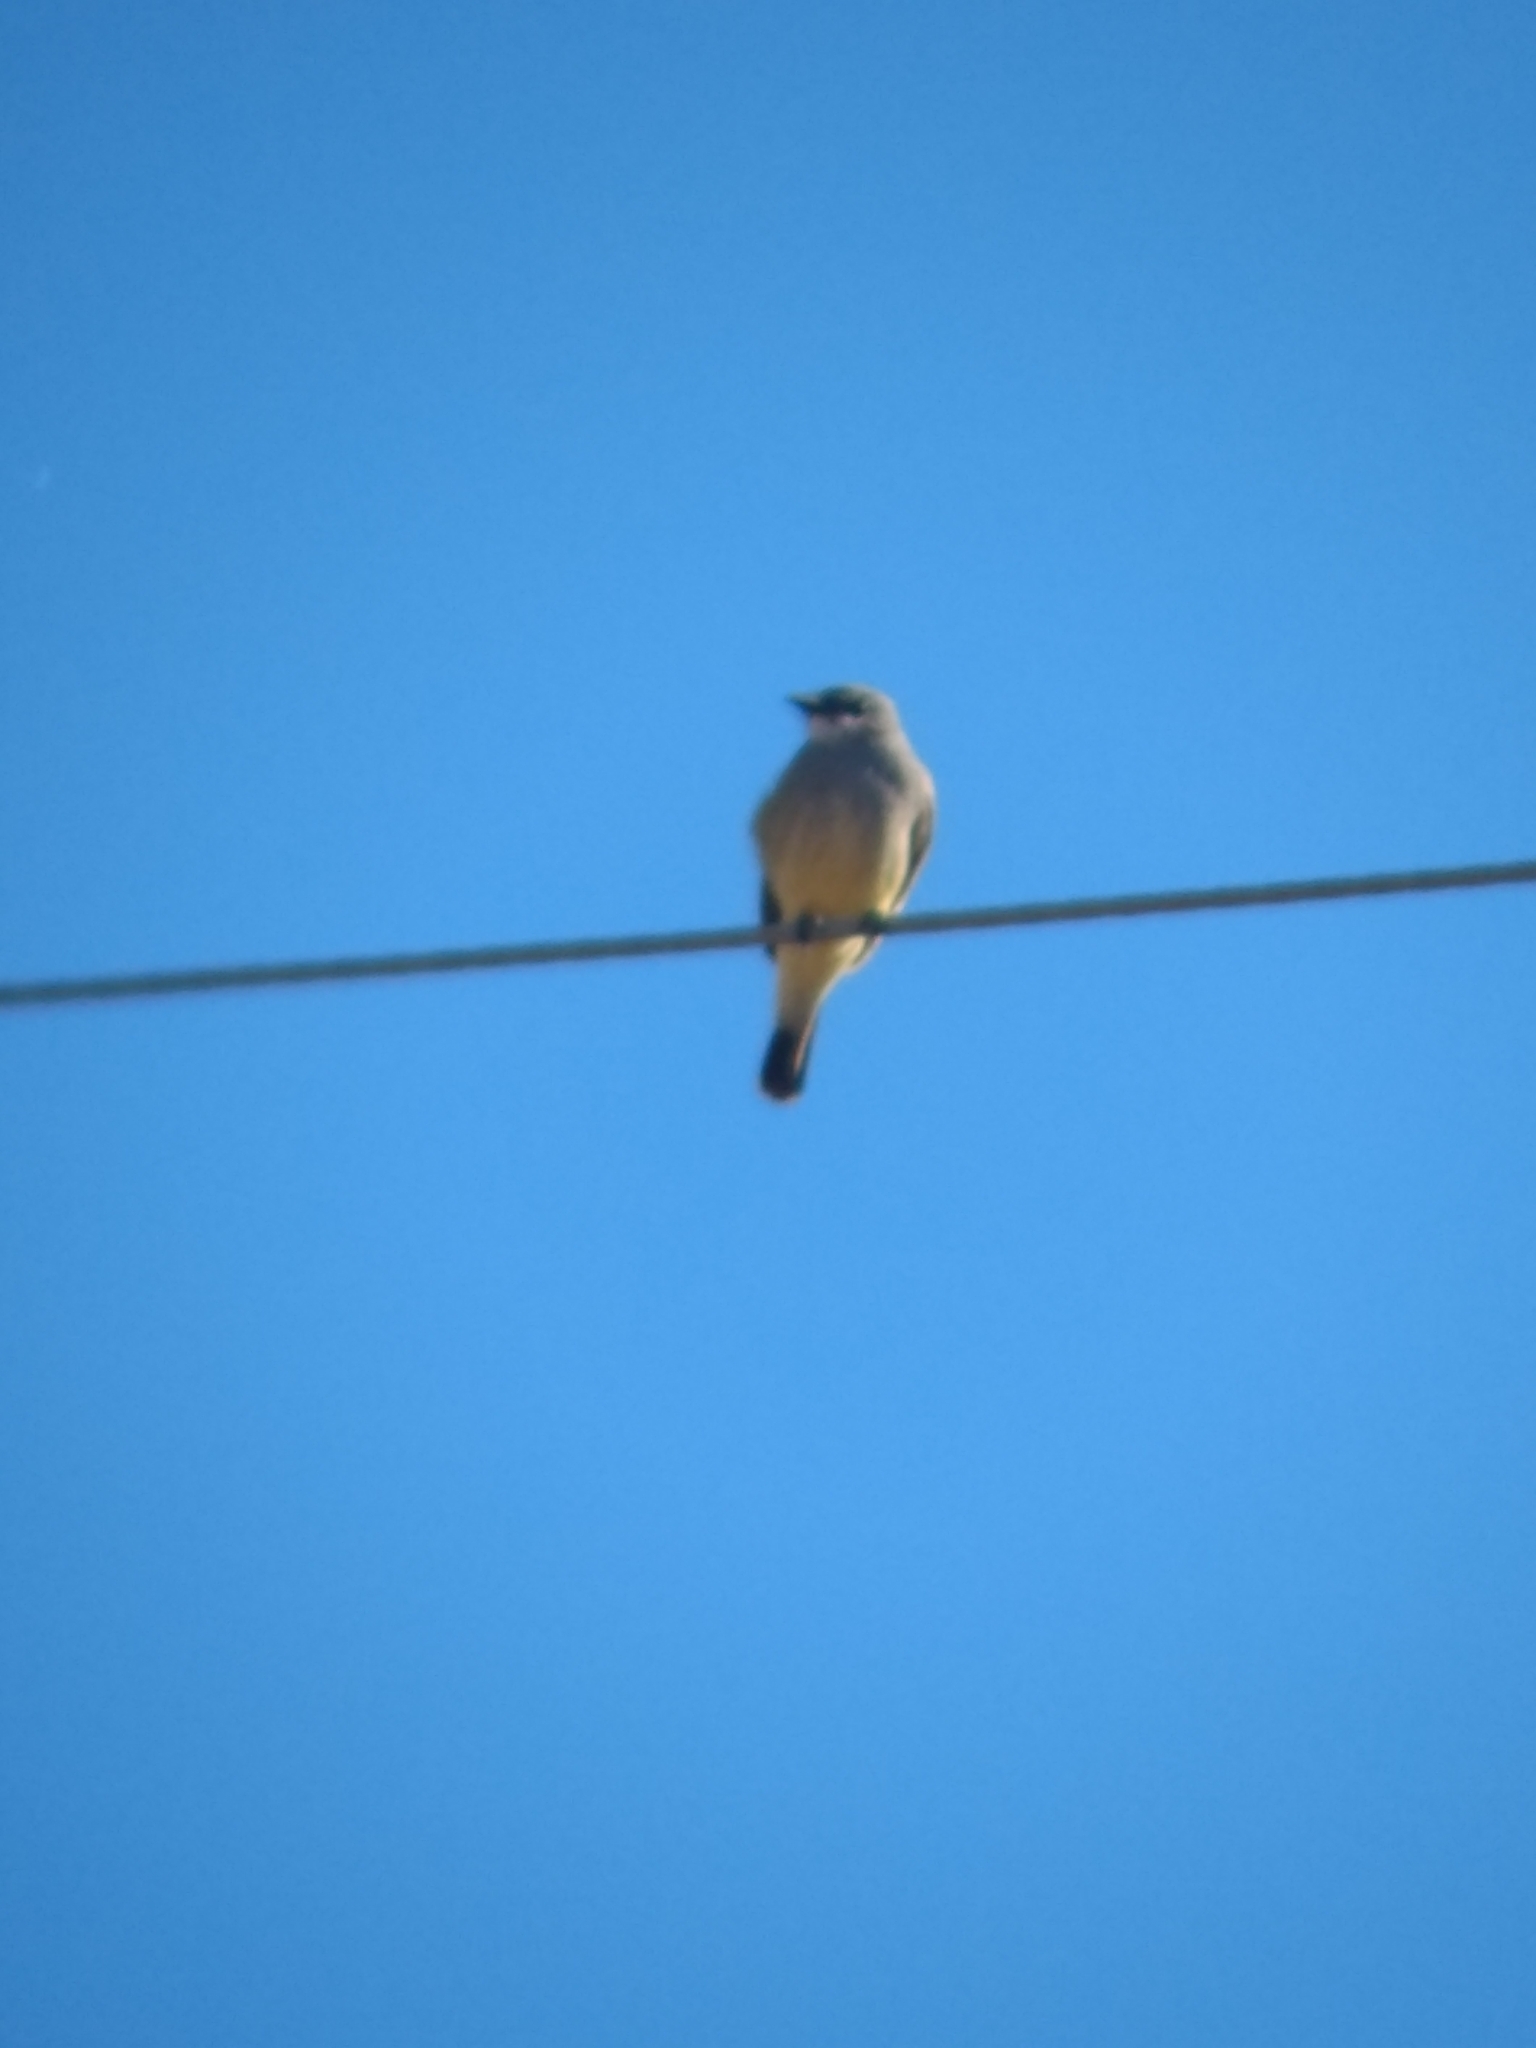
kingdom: Animalia
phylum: Chordata
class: Aves
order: Passeriformes
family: Tyrannidae
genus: Tyrannus
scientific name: Tyrannus vociferans
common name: Cassin's kingbird
